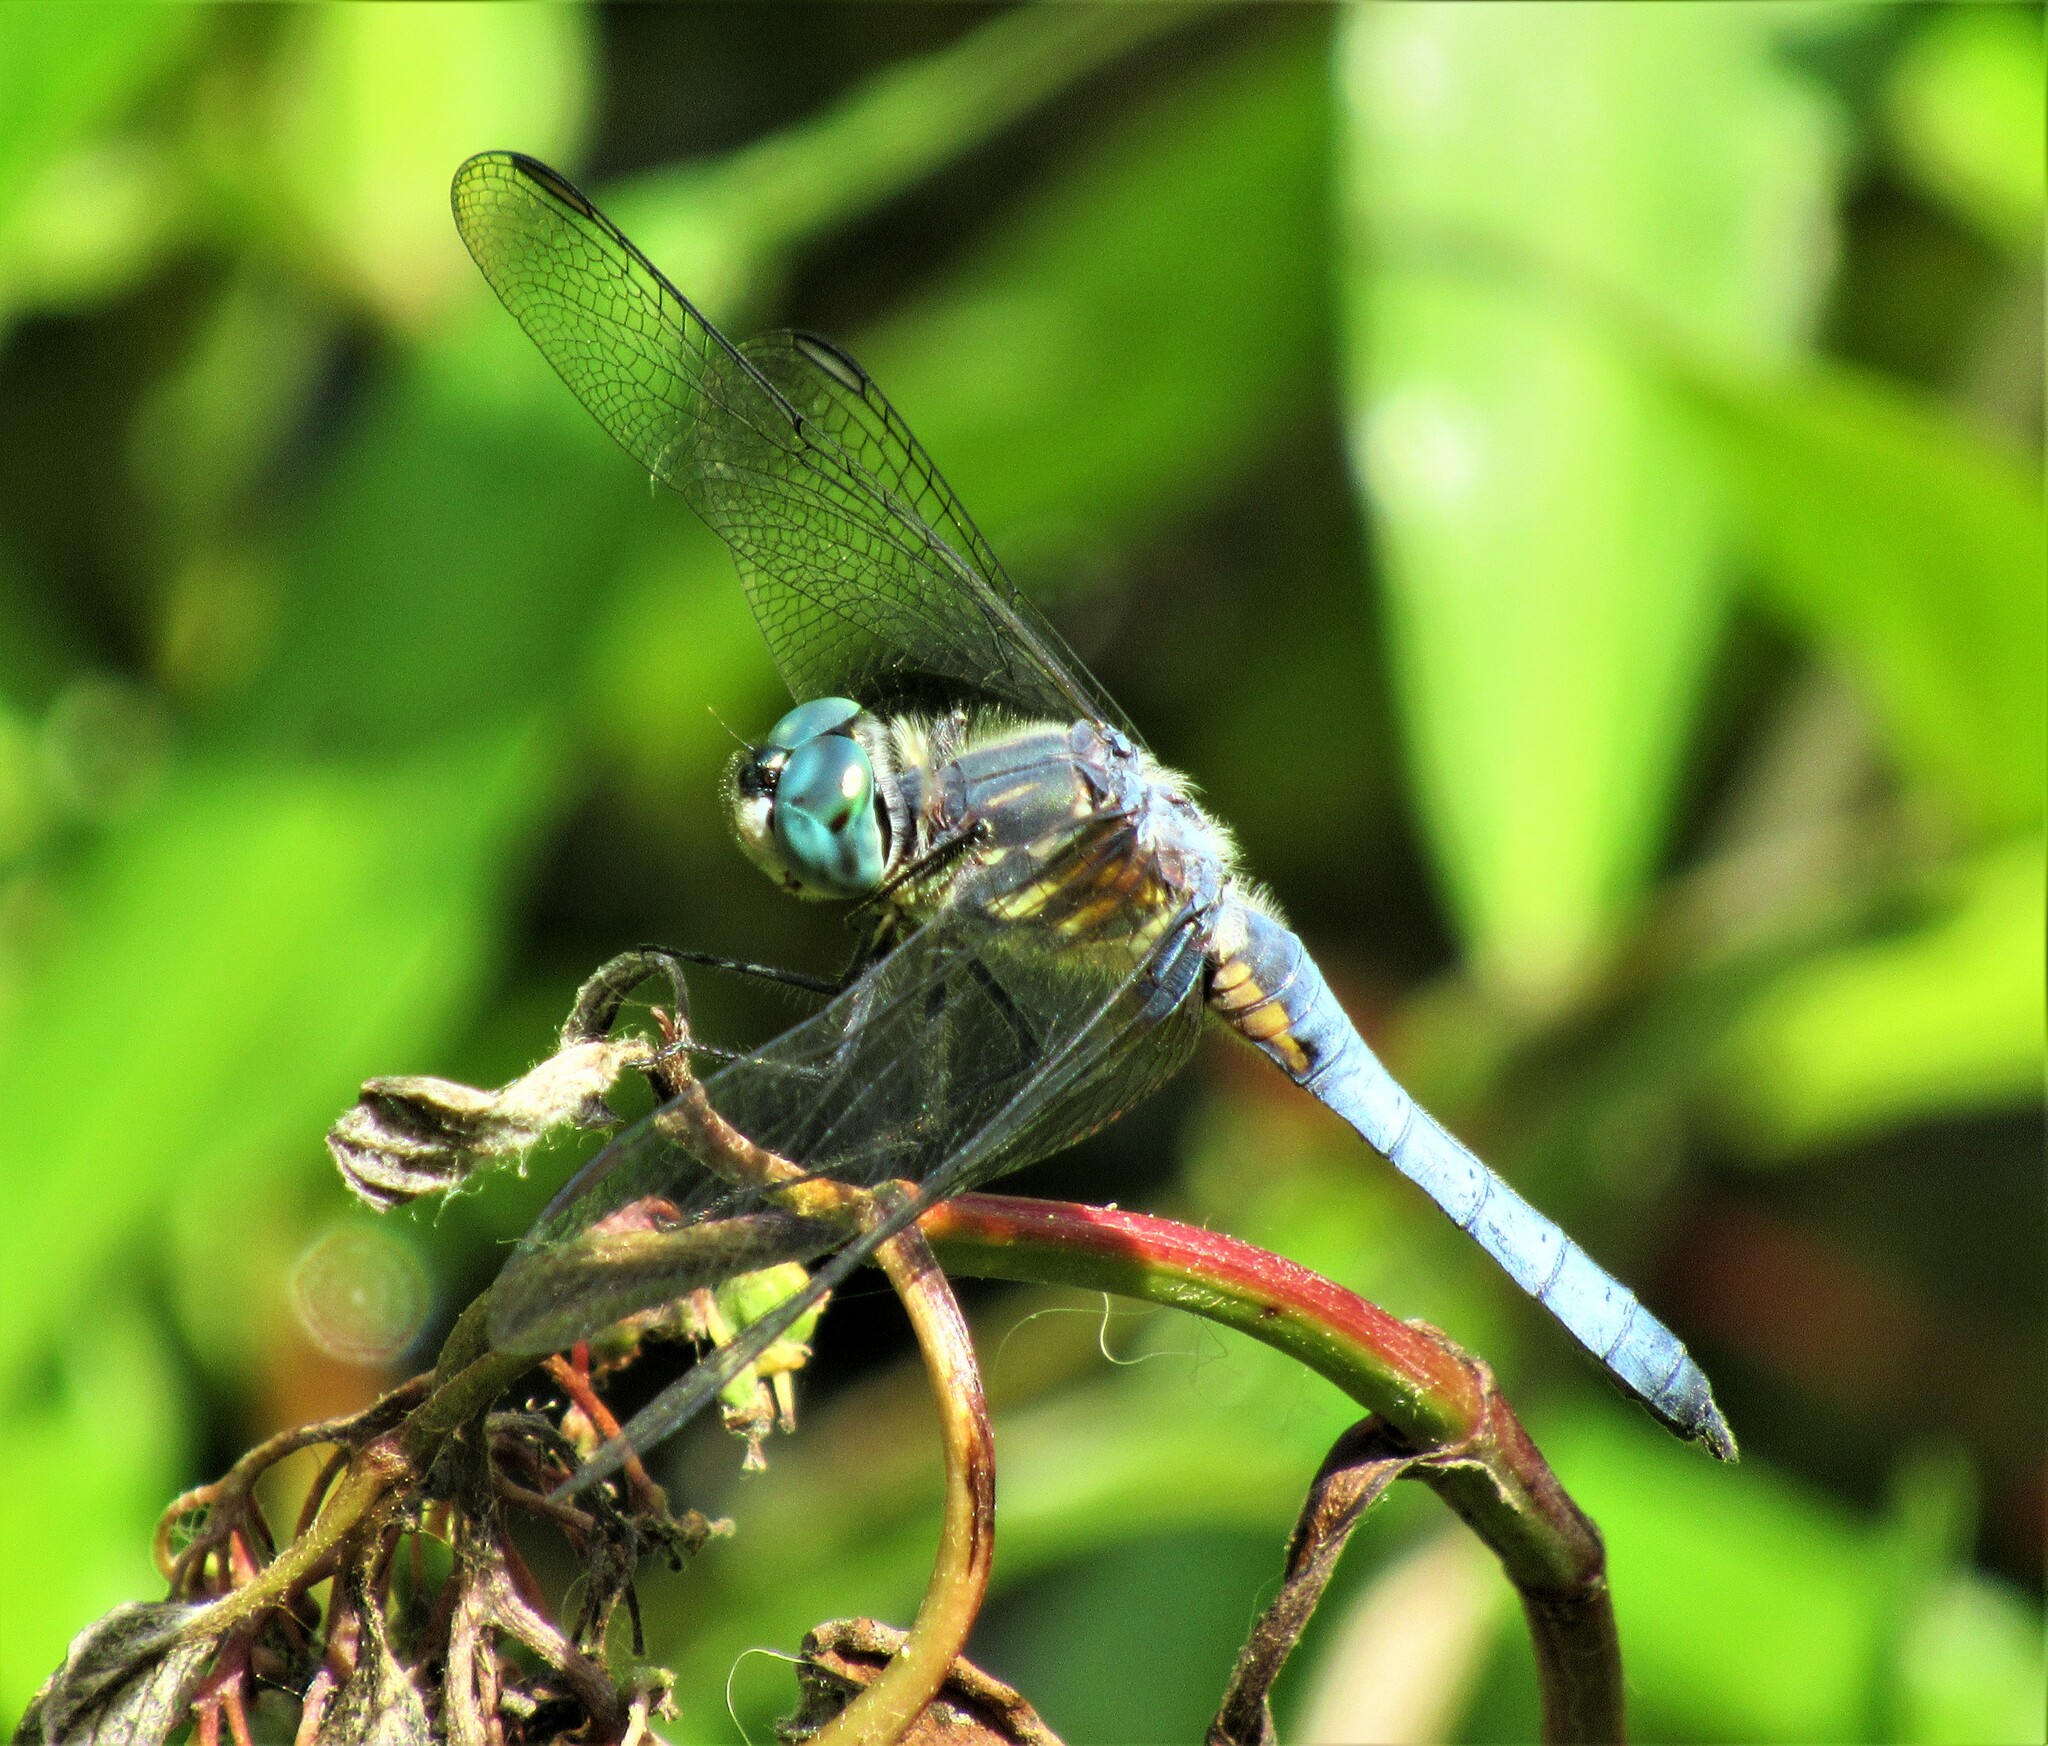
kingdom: Animalia
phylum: Arthropoda
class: Insecta
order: Odonata
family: Libellulidae
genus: Pachydiplax
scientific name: Pachydiplax longipennis
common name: Blue dasher
